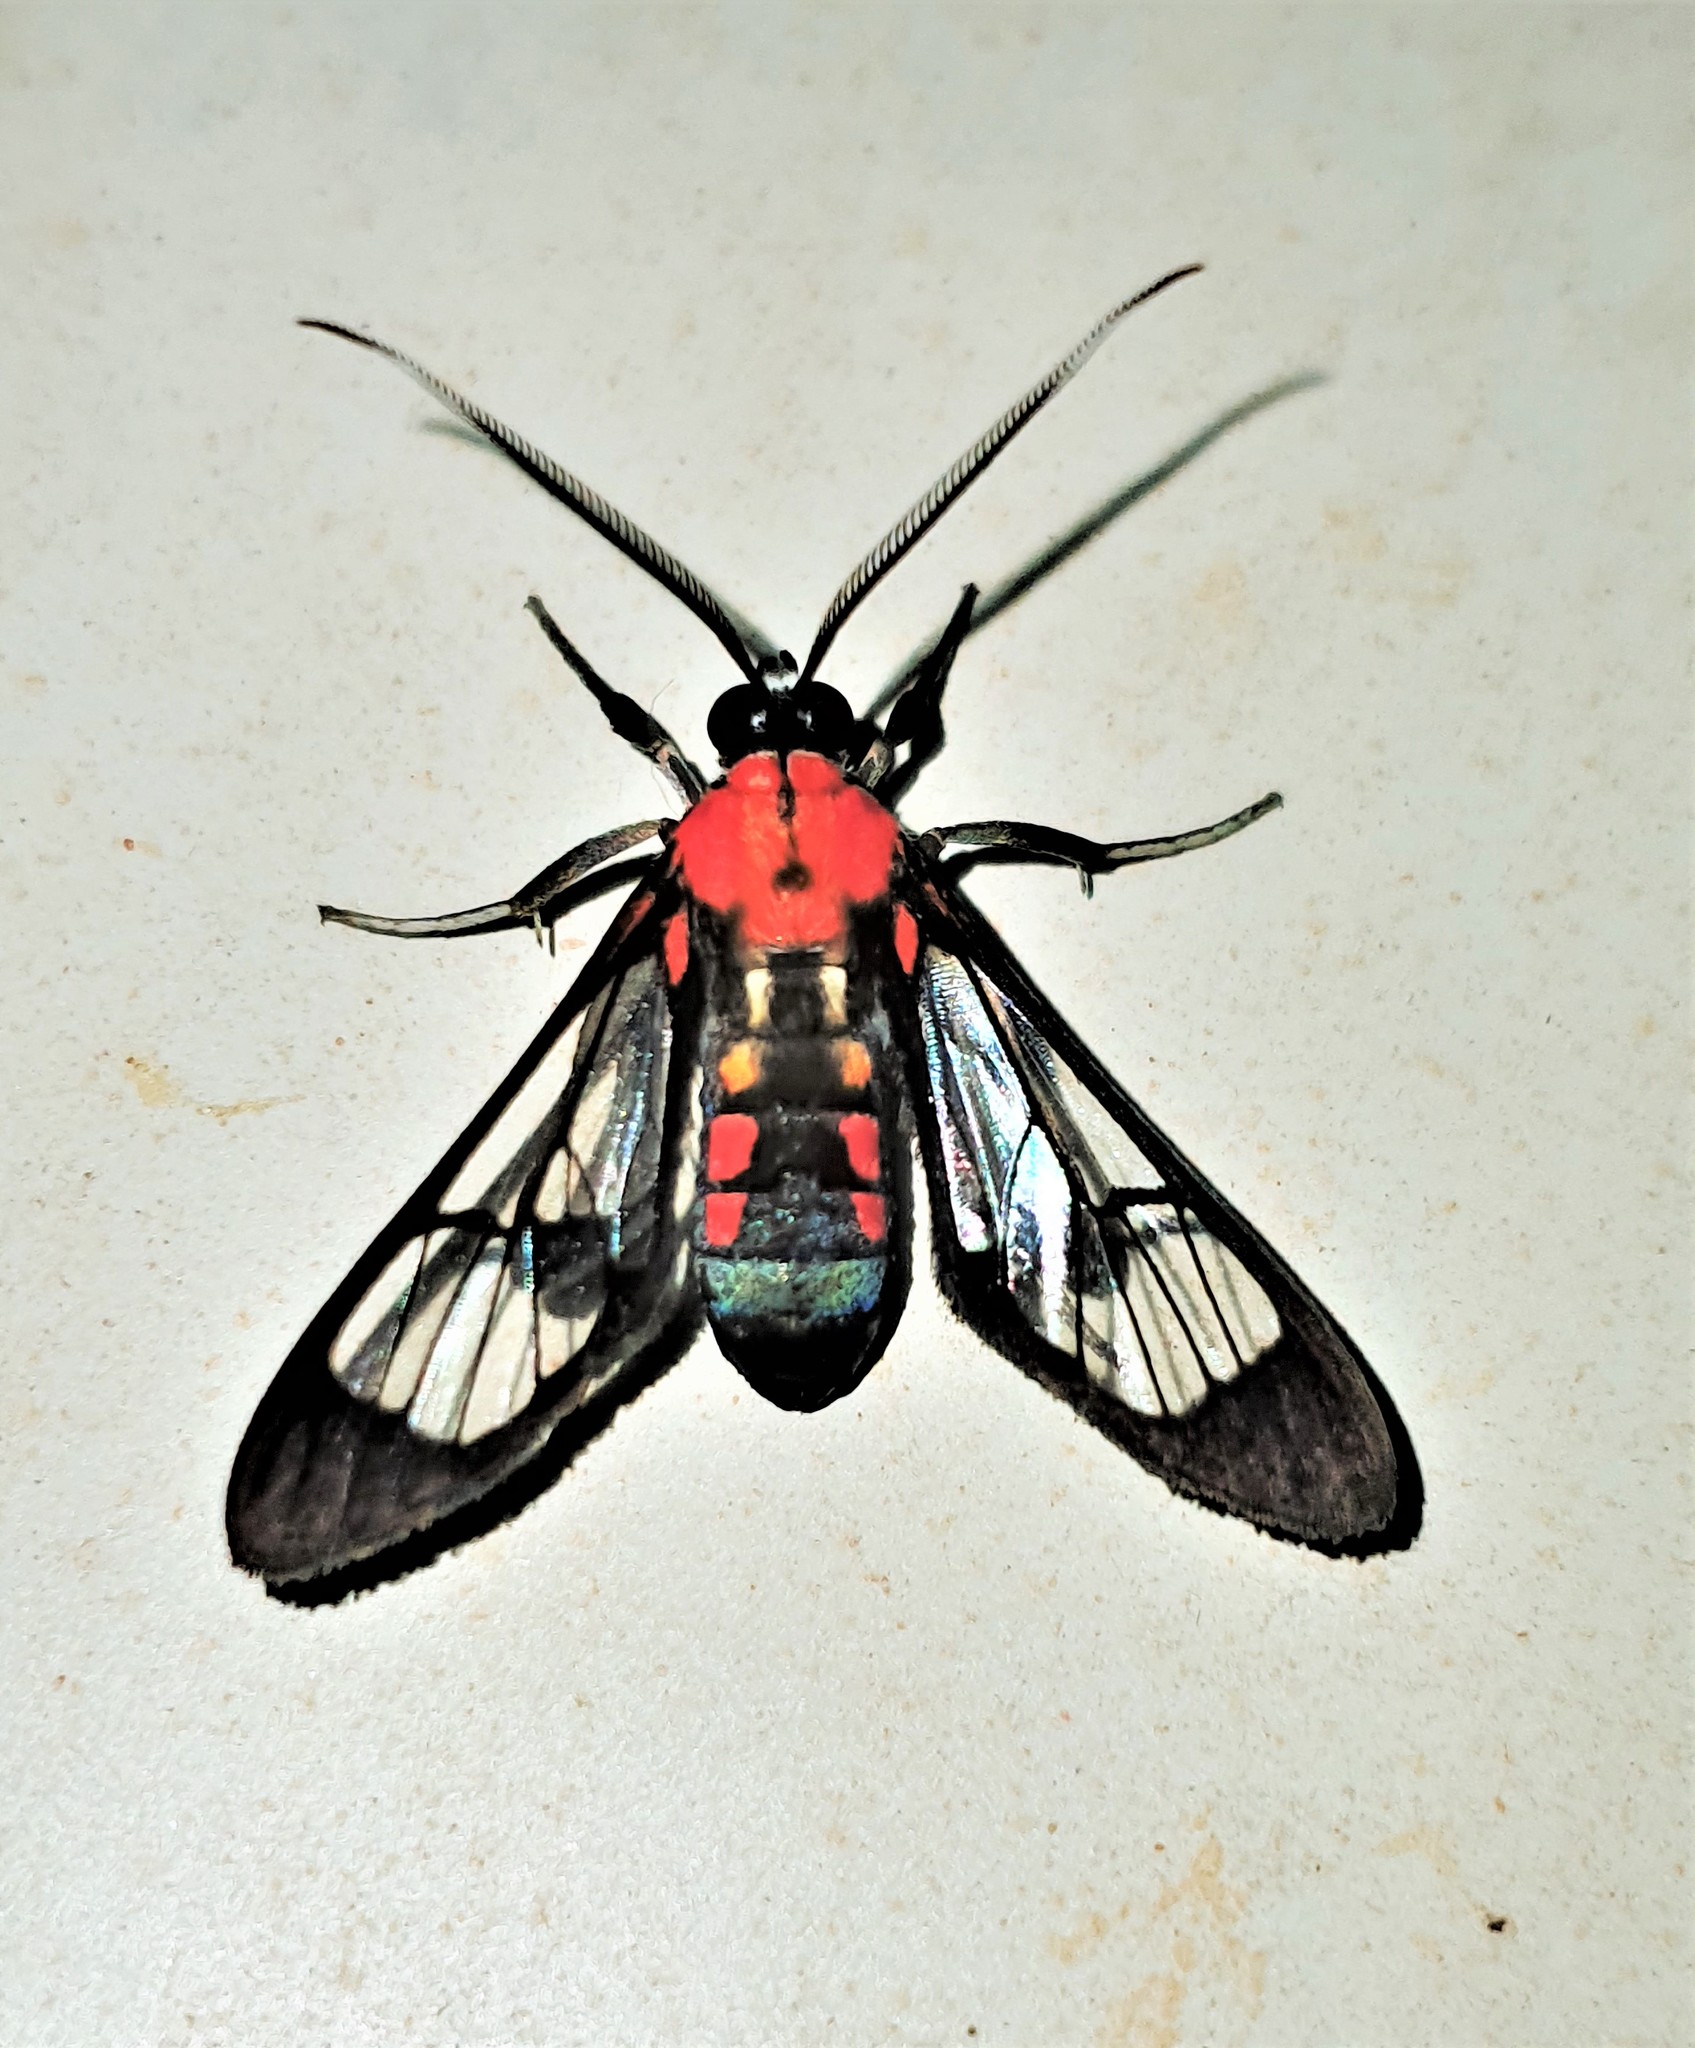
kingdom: Animalia
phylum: Arthropoda
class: Insecta
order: Lepidoptera
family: Erebidae
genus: Loxophlebia
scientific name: Loxophlebia crocata
